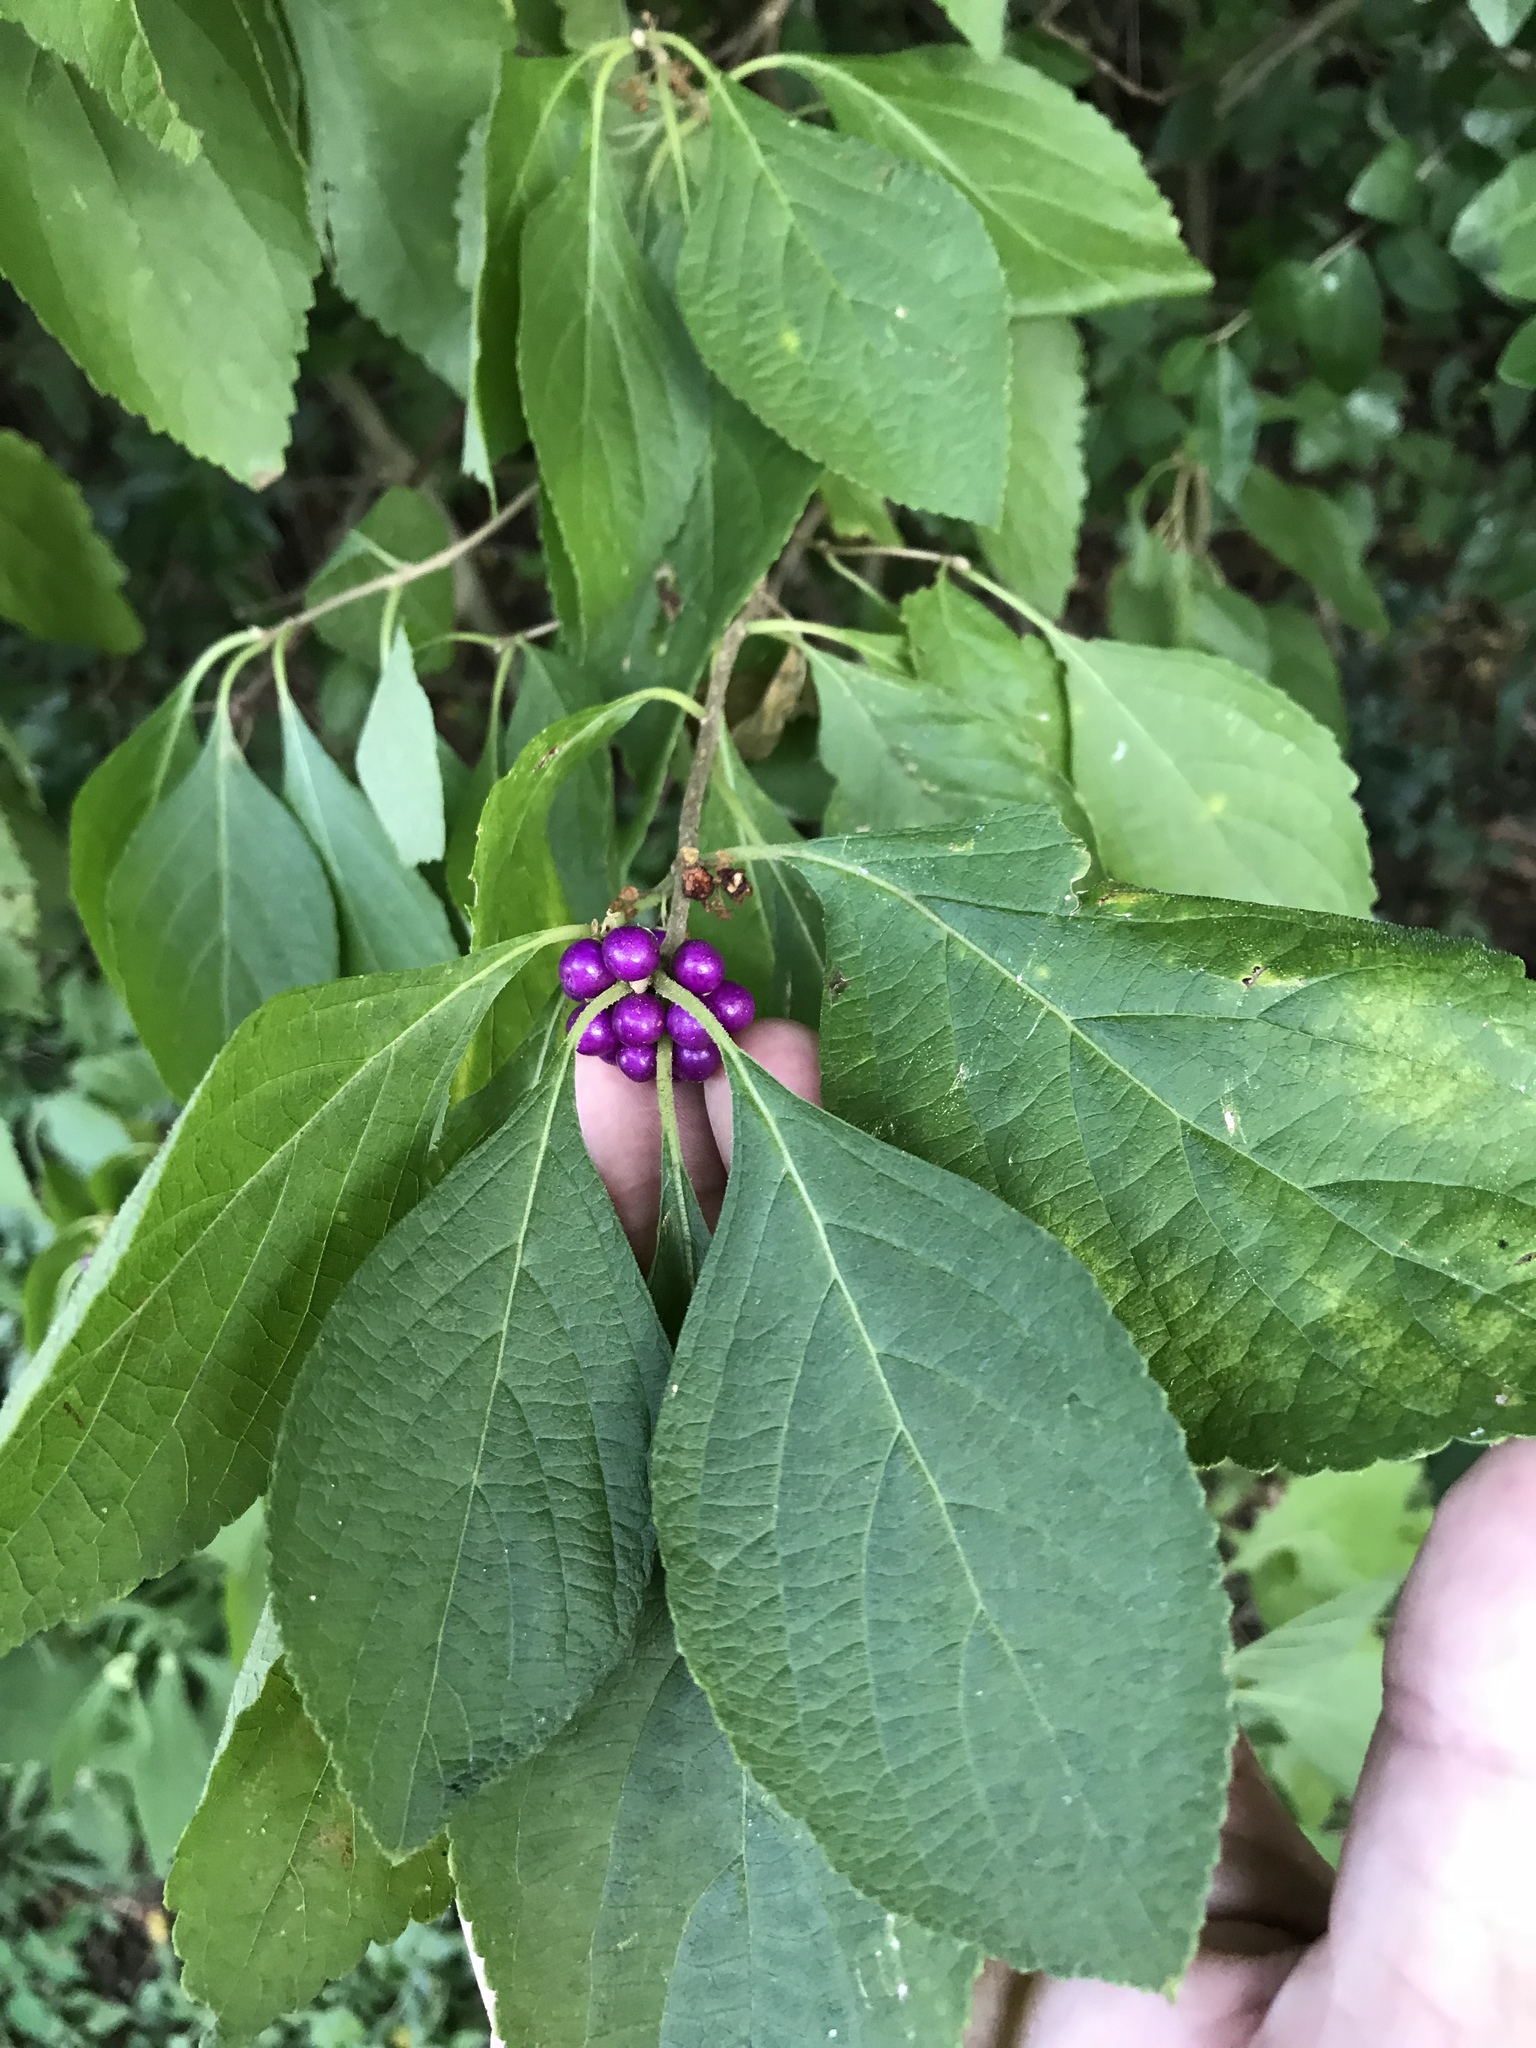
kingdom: Plantae
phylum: Tracheophyta
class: Magnoliopsida
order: Lamiales
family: Lamiaceae
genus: Callicarpa
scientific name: Callicarpa americana
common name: American beautyberry
